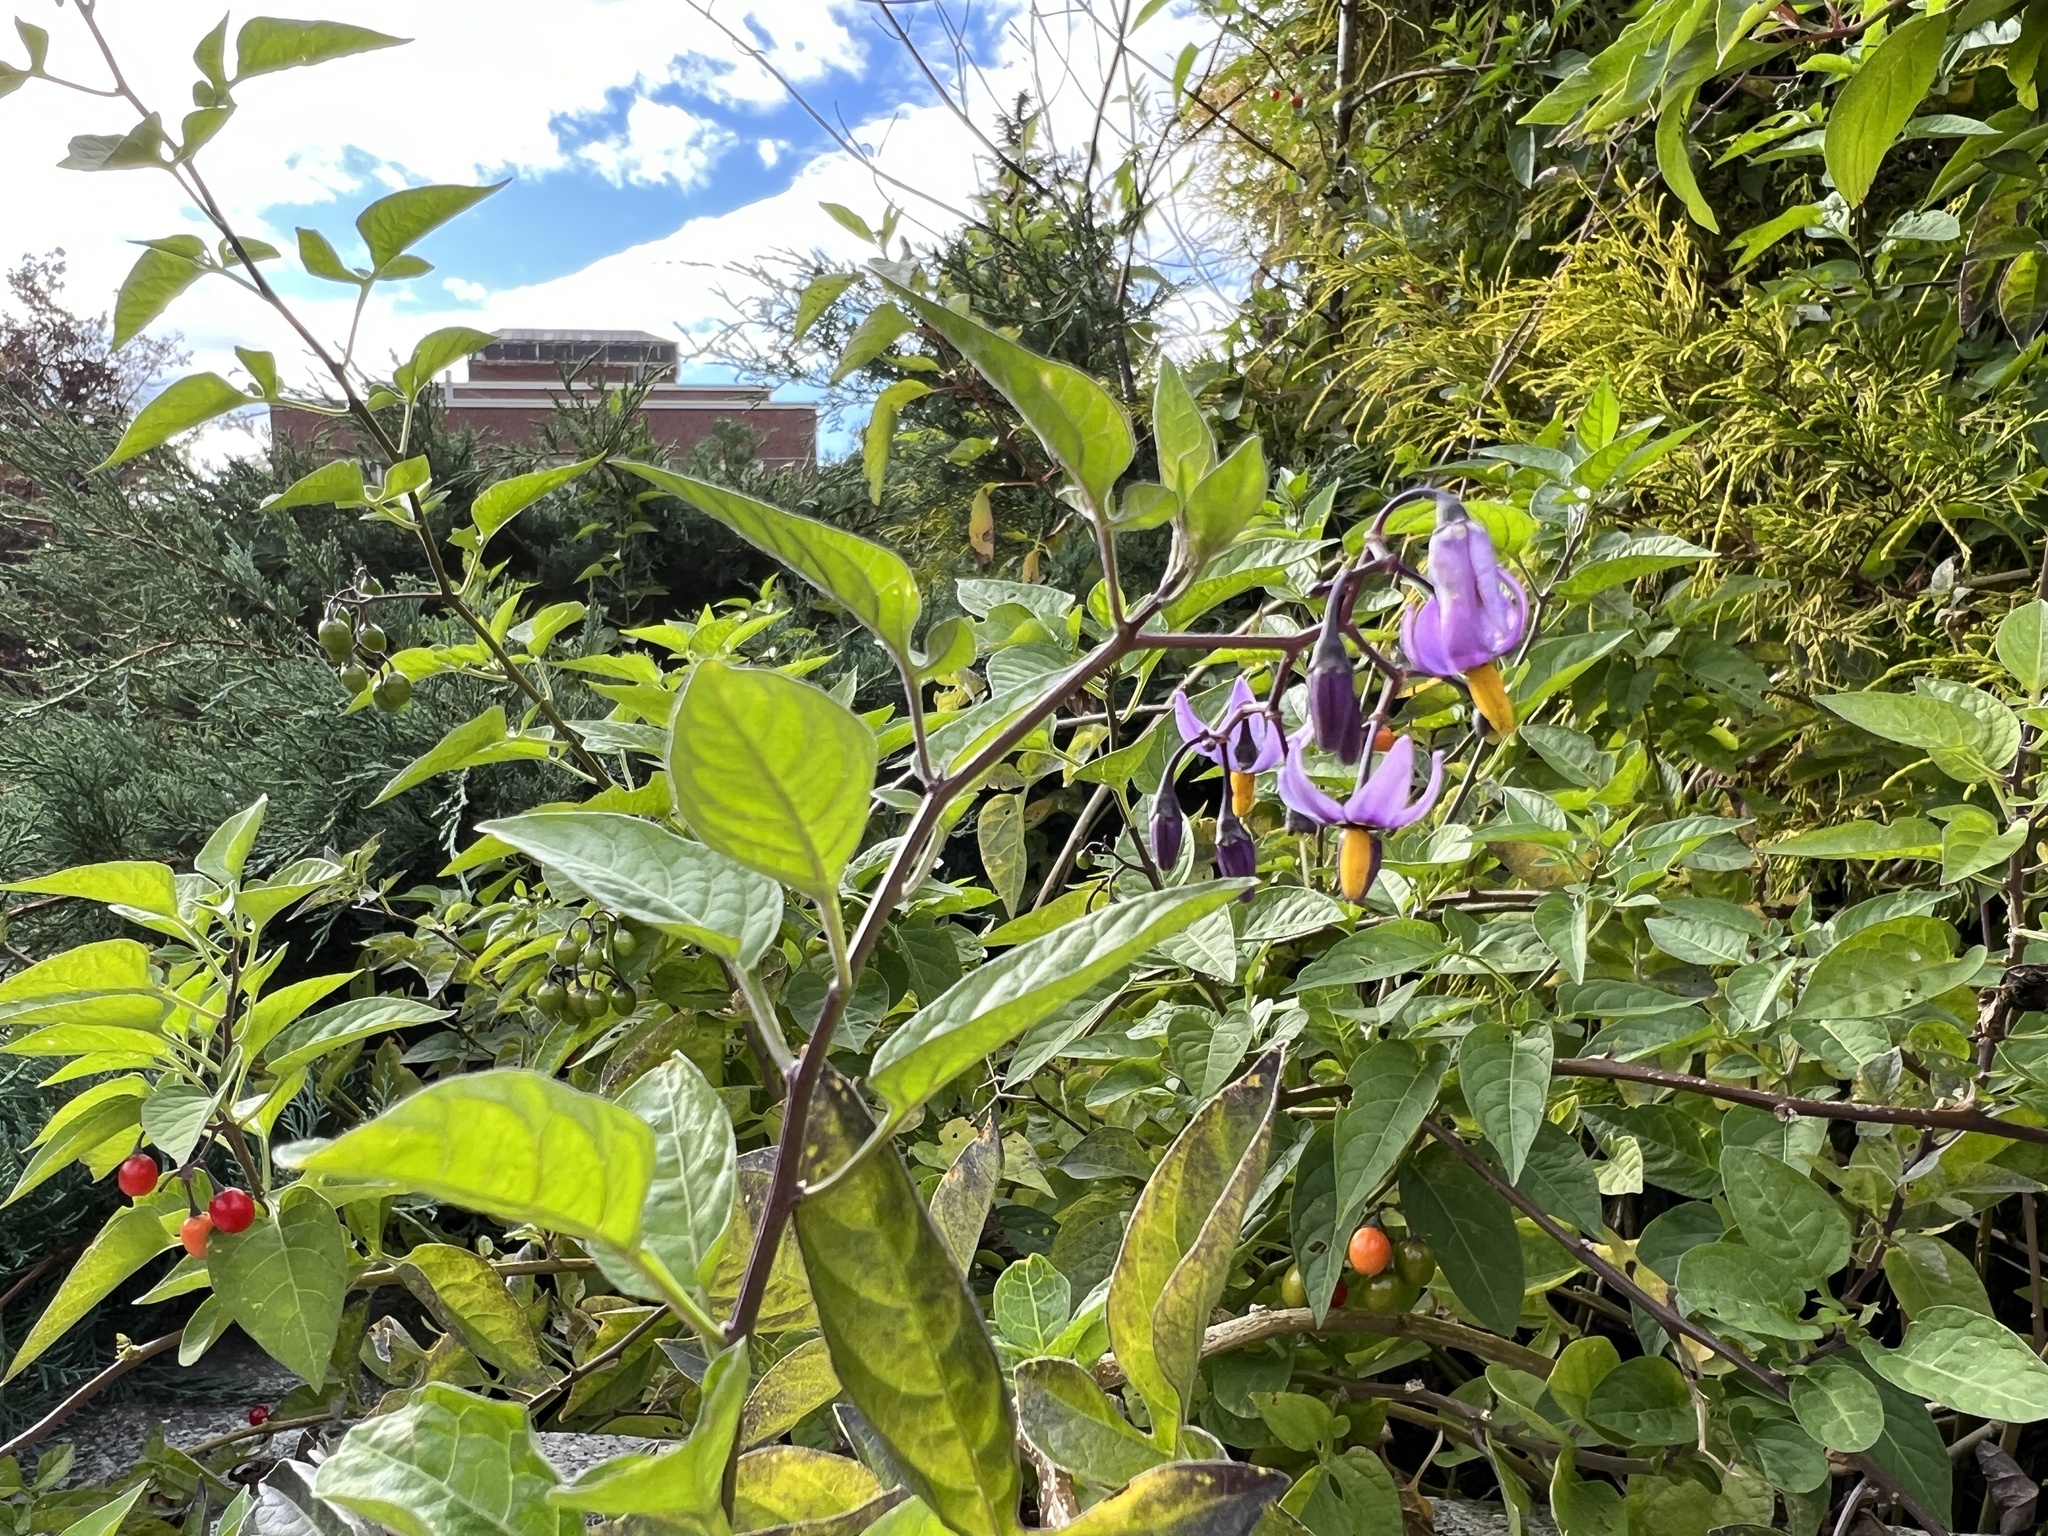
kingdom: Plantae
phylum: Tracheophyta
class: Magnoliopsida
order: Solanales
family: Solanaceae
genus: Solanum
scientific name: Solanum dulcamara
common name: Climbing nightshade
